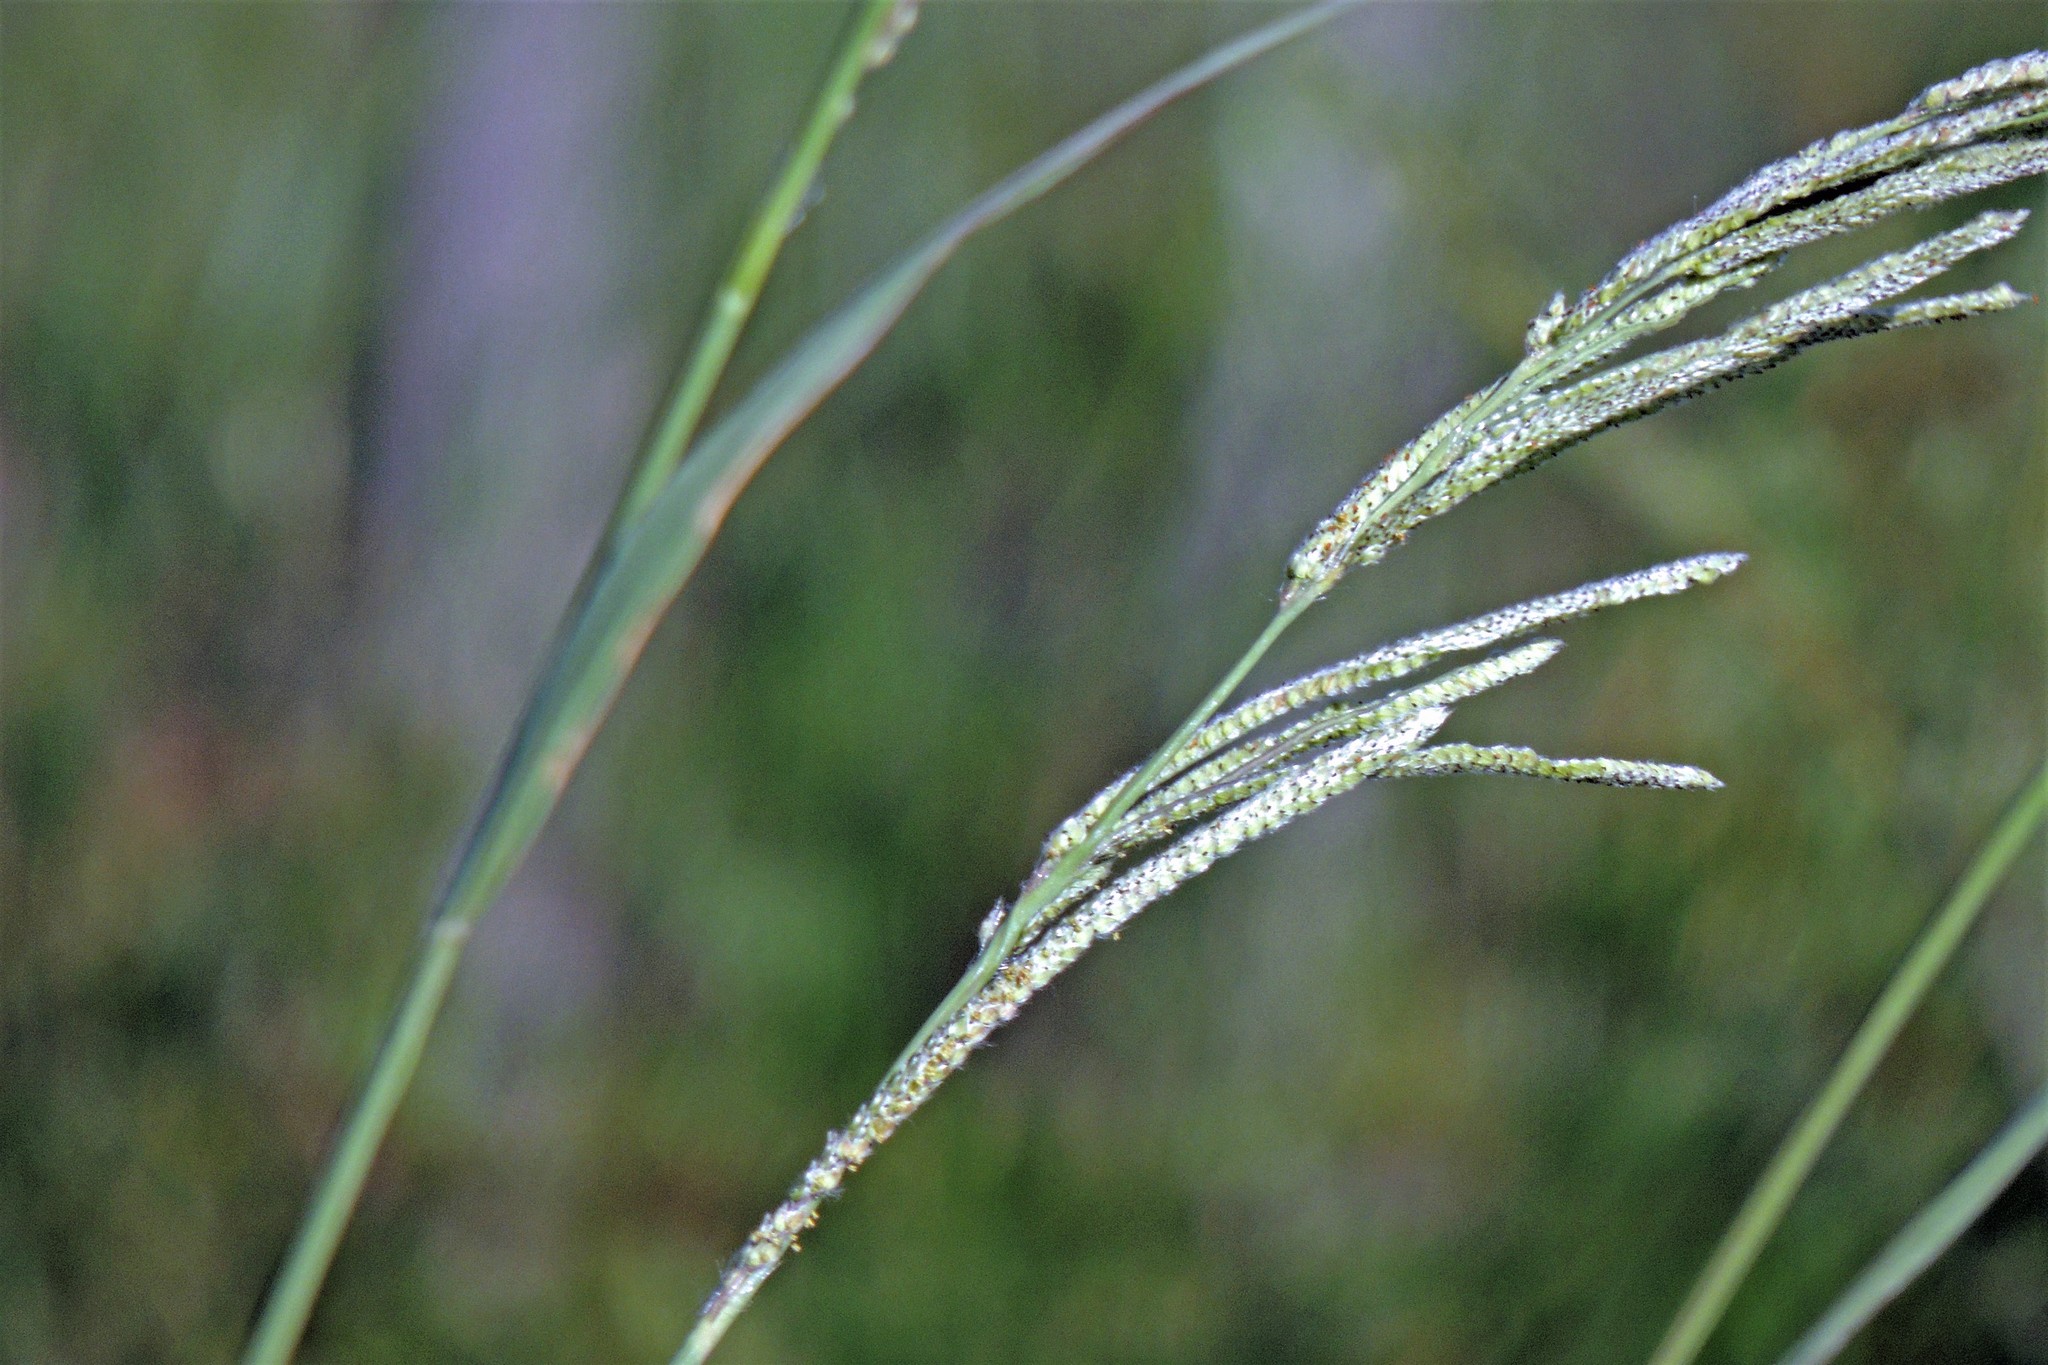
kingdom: Plantae
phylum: Tracheophyta
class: Liliopsida
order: Poales
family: Poaceae
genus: Paspalum
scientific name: Paspalum urvillei
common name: Vasey's grass
